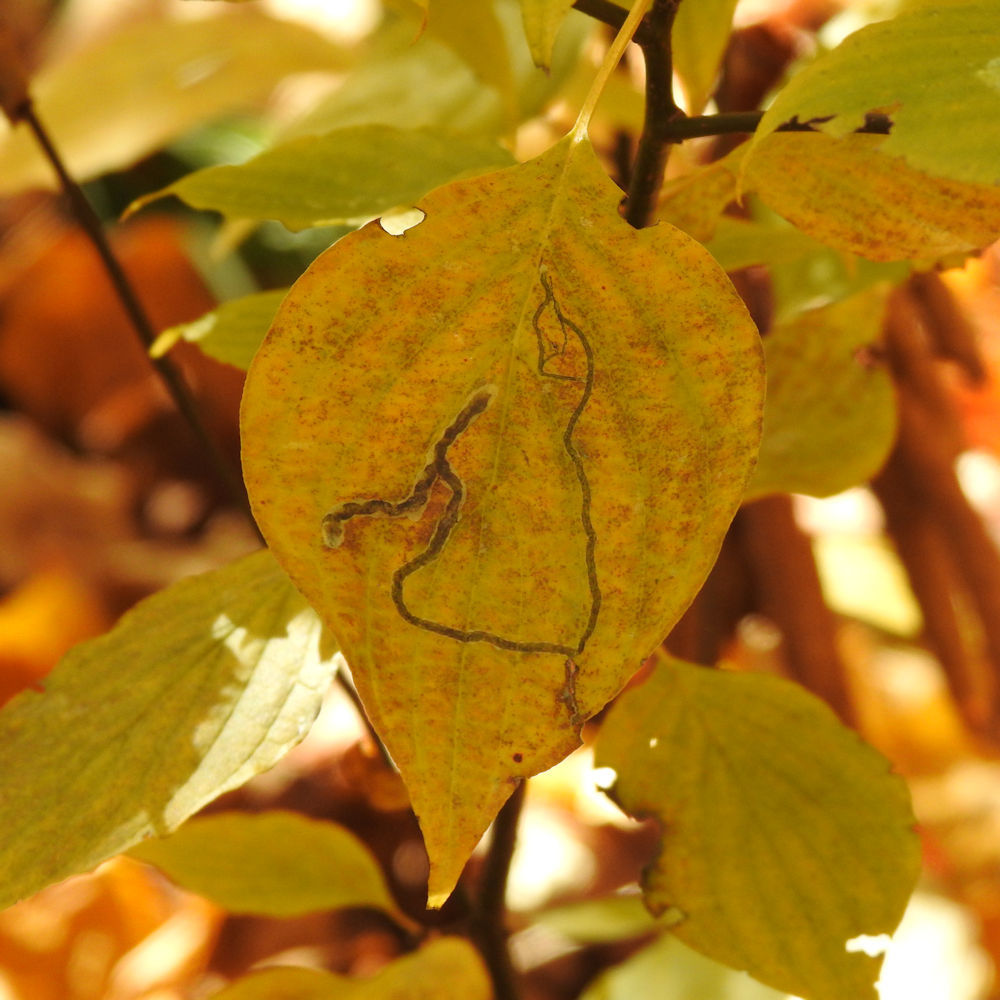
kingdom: Animalia
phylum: Arthropoda
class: Insecta
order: Diptera
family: Agromyzidae
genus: Phytomyza
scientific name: Phytomyza agromyzina
